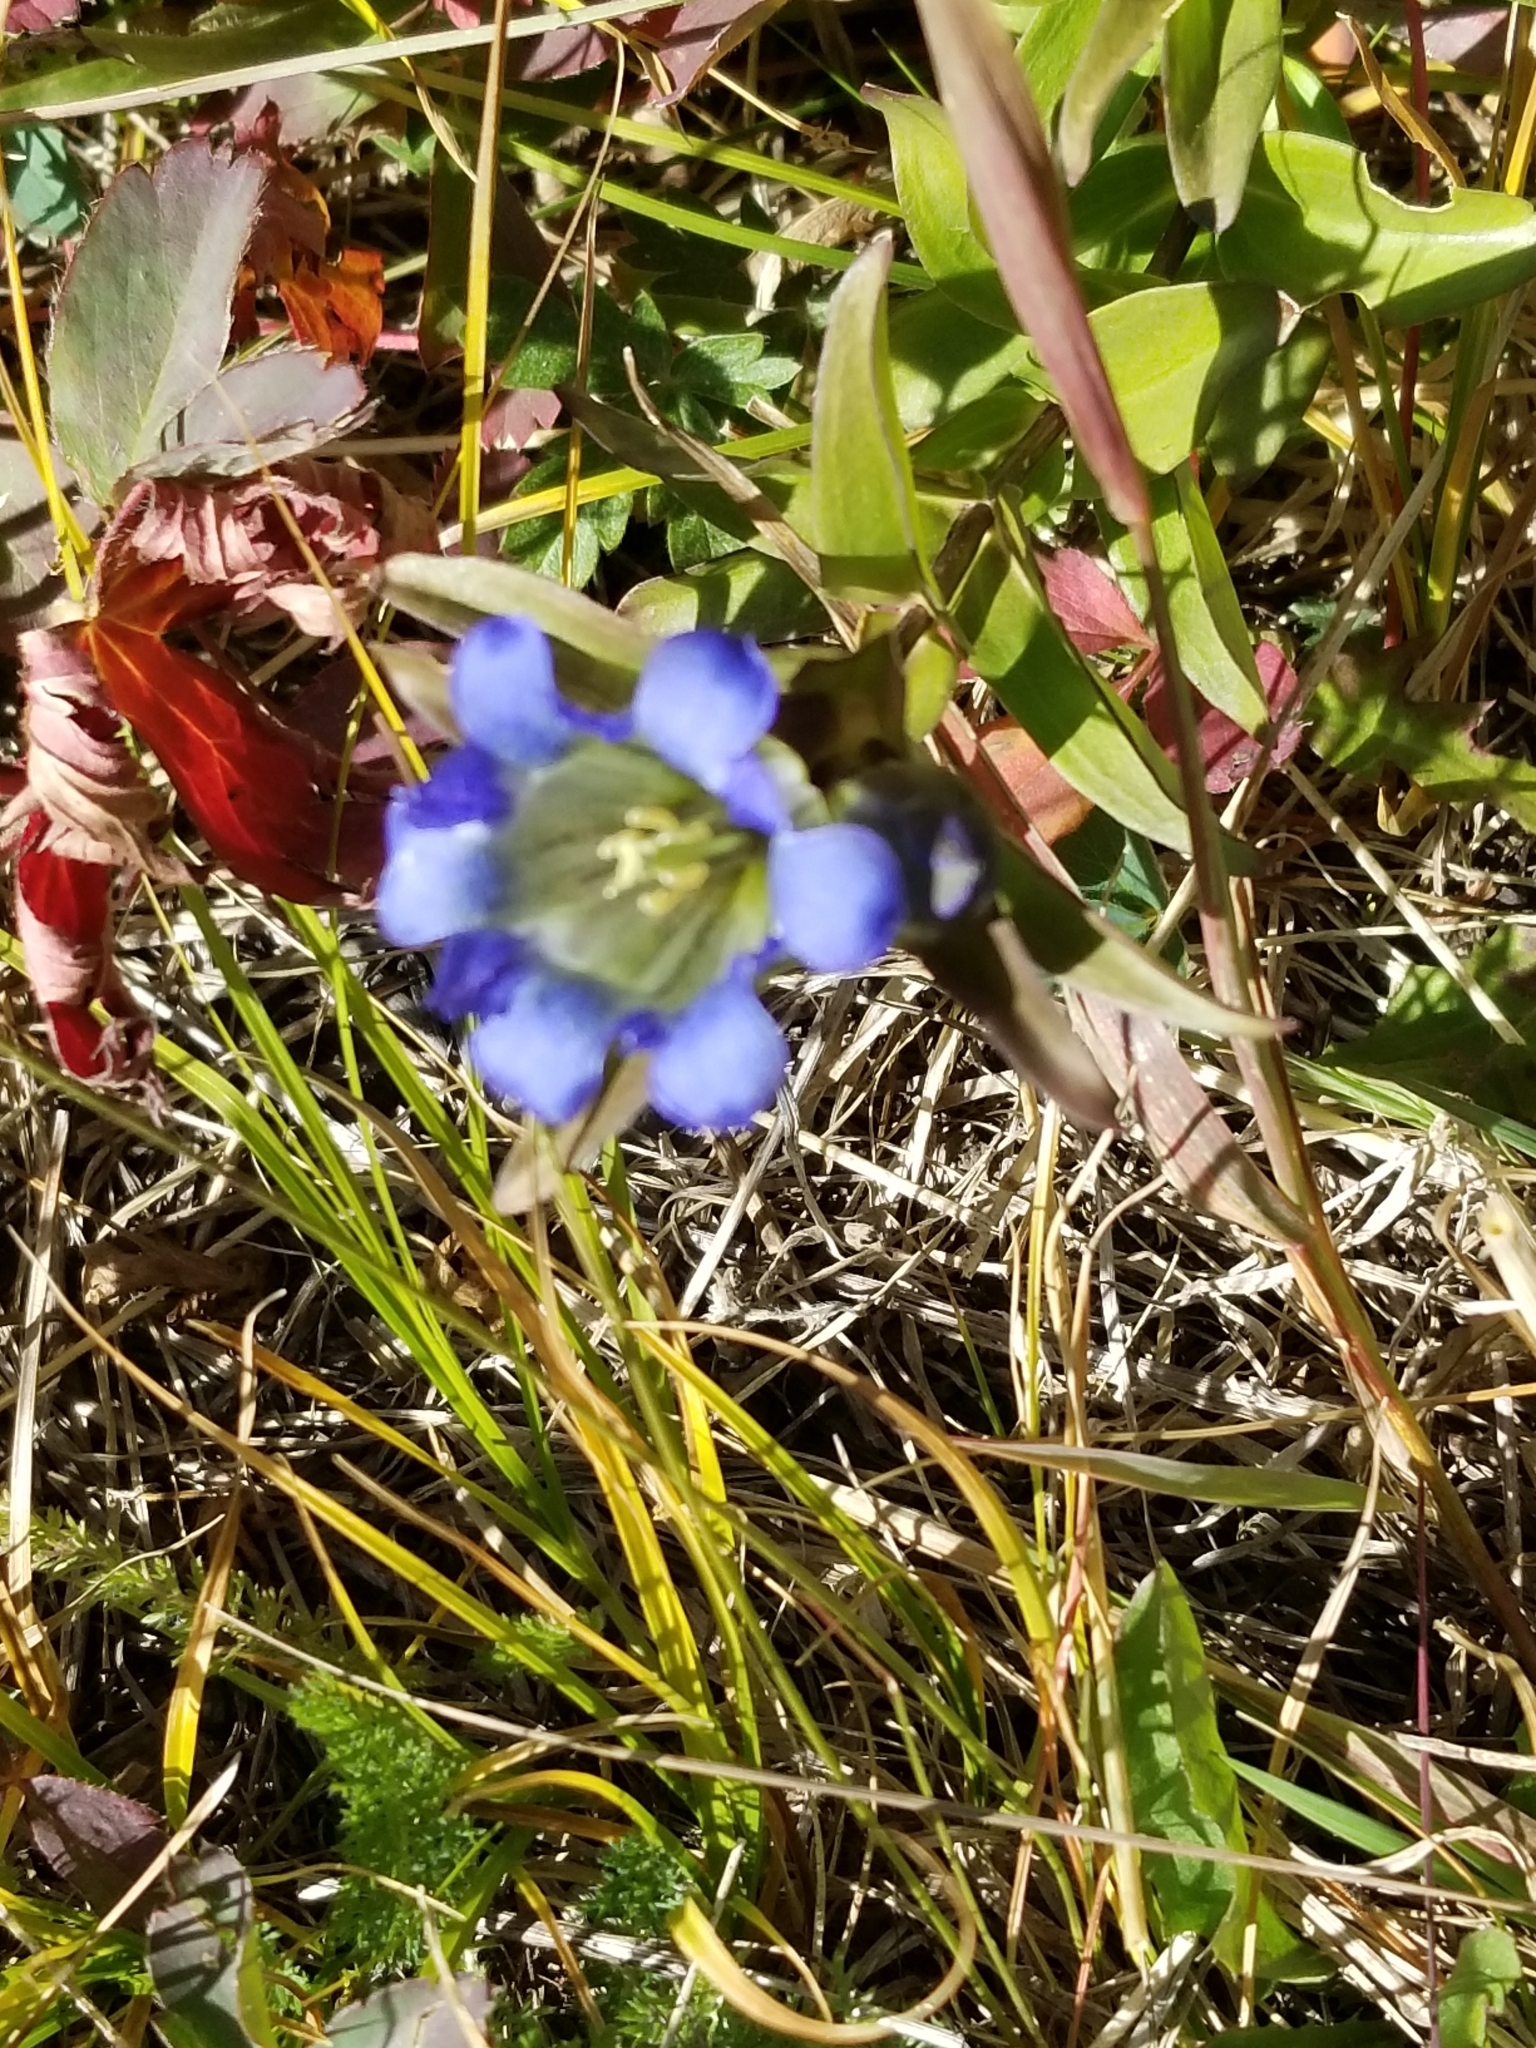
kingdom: Plantae
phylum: Tracheophyta
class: Magnoliopsida
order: Gentianales
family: Gentianaceae
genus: Gentiana
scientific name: Gentiana parryi
